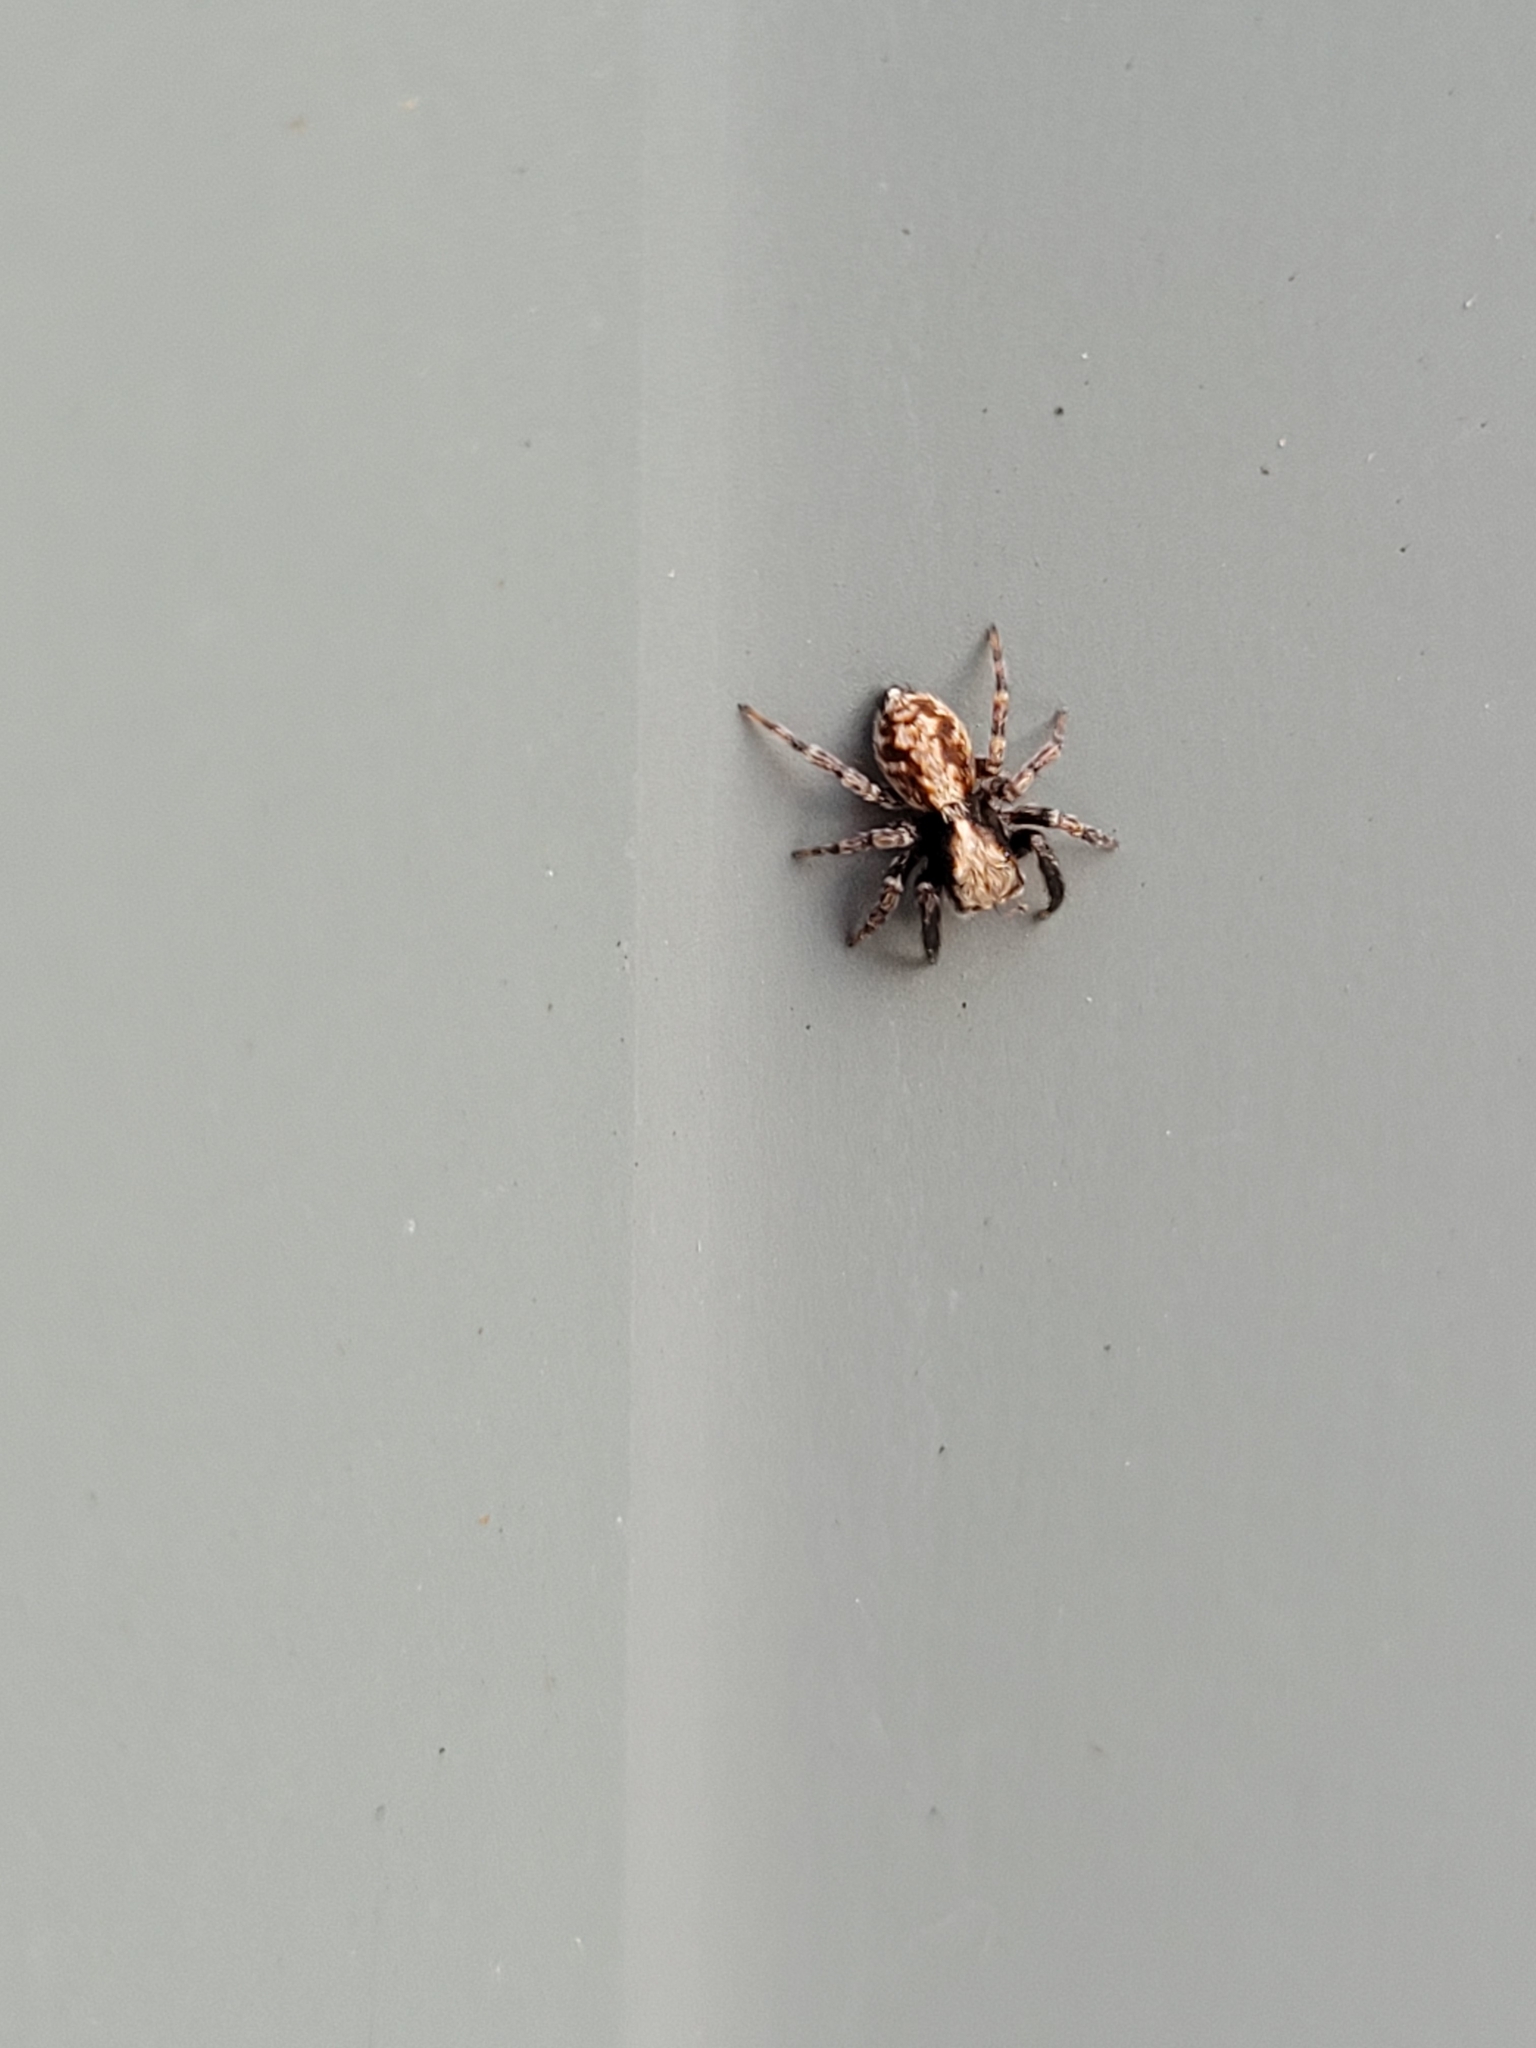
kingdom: Animalia
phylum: Arthropoda
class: Arachnida
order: Araneae
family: Salticidae
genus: Pseudeuophrys
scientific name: Pseudeuophrys lanigera
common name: Jumping spider
